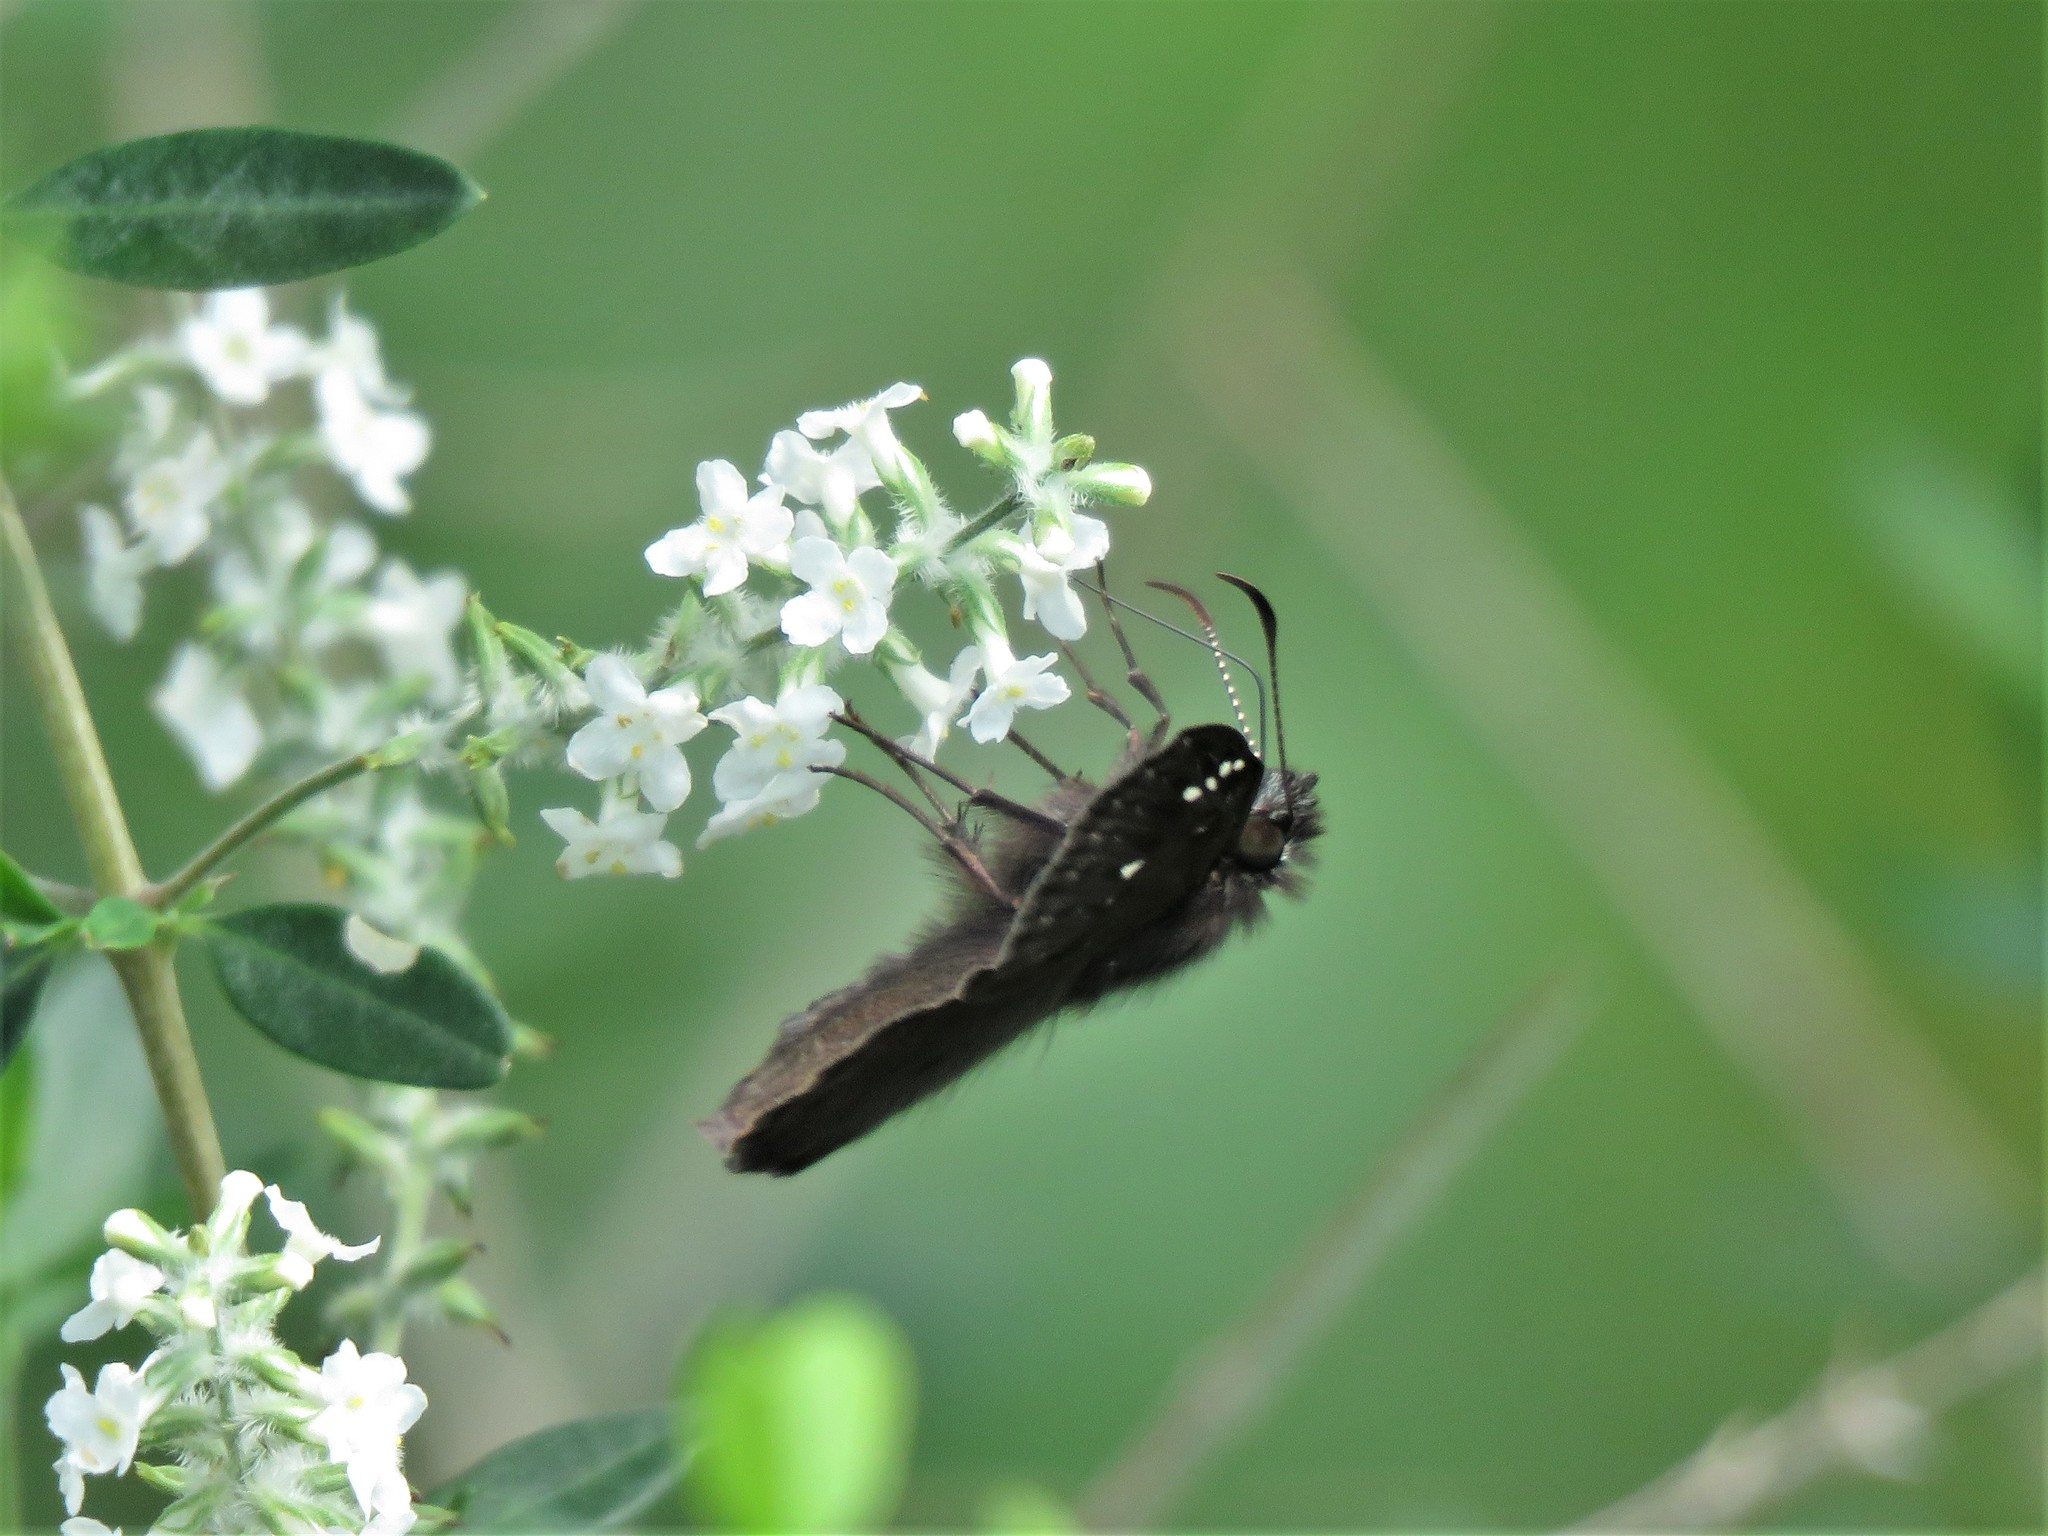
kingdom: Animalia
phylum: Arthropoda
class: Insecta
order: Lepidoptera
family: Hesperiidae
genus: Erynnis
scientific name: Erynnis horatius
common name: Horace's duskywing
